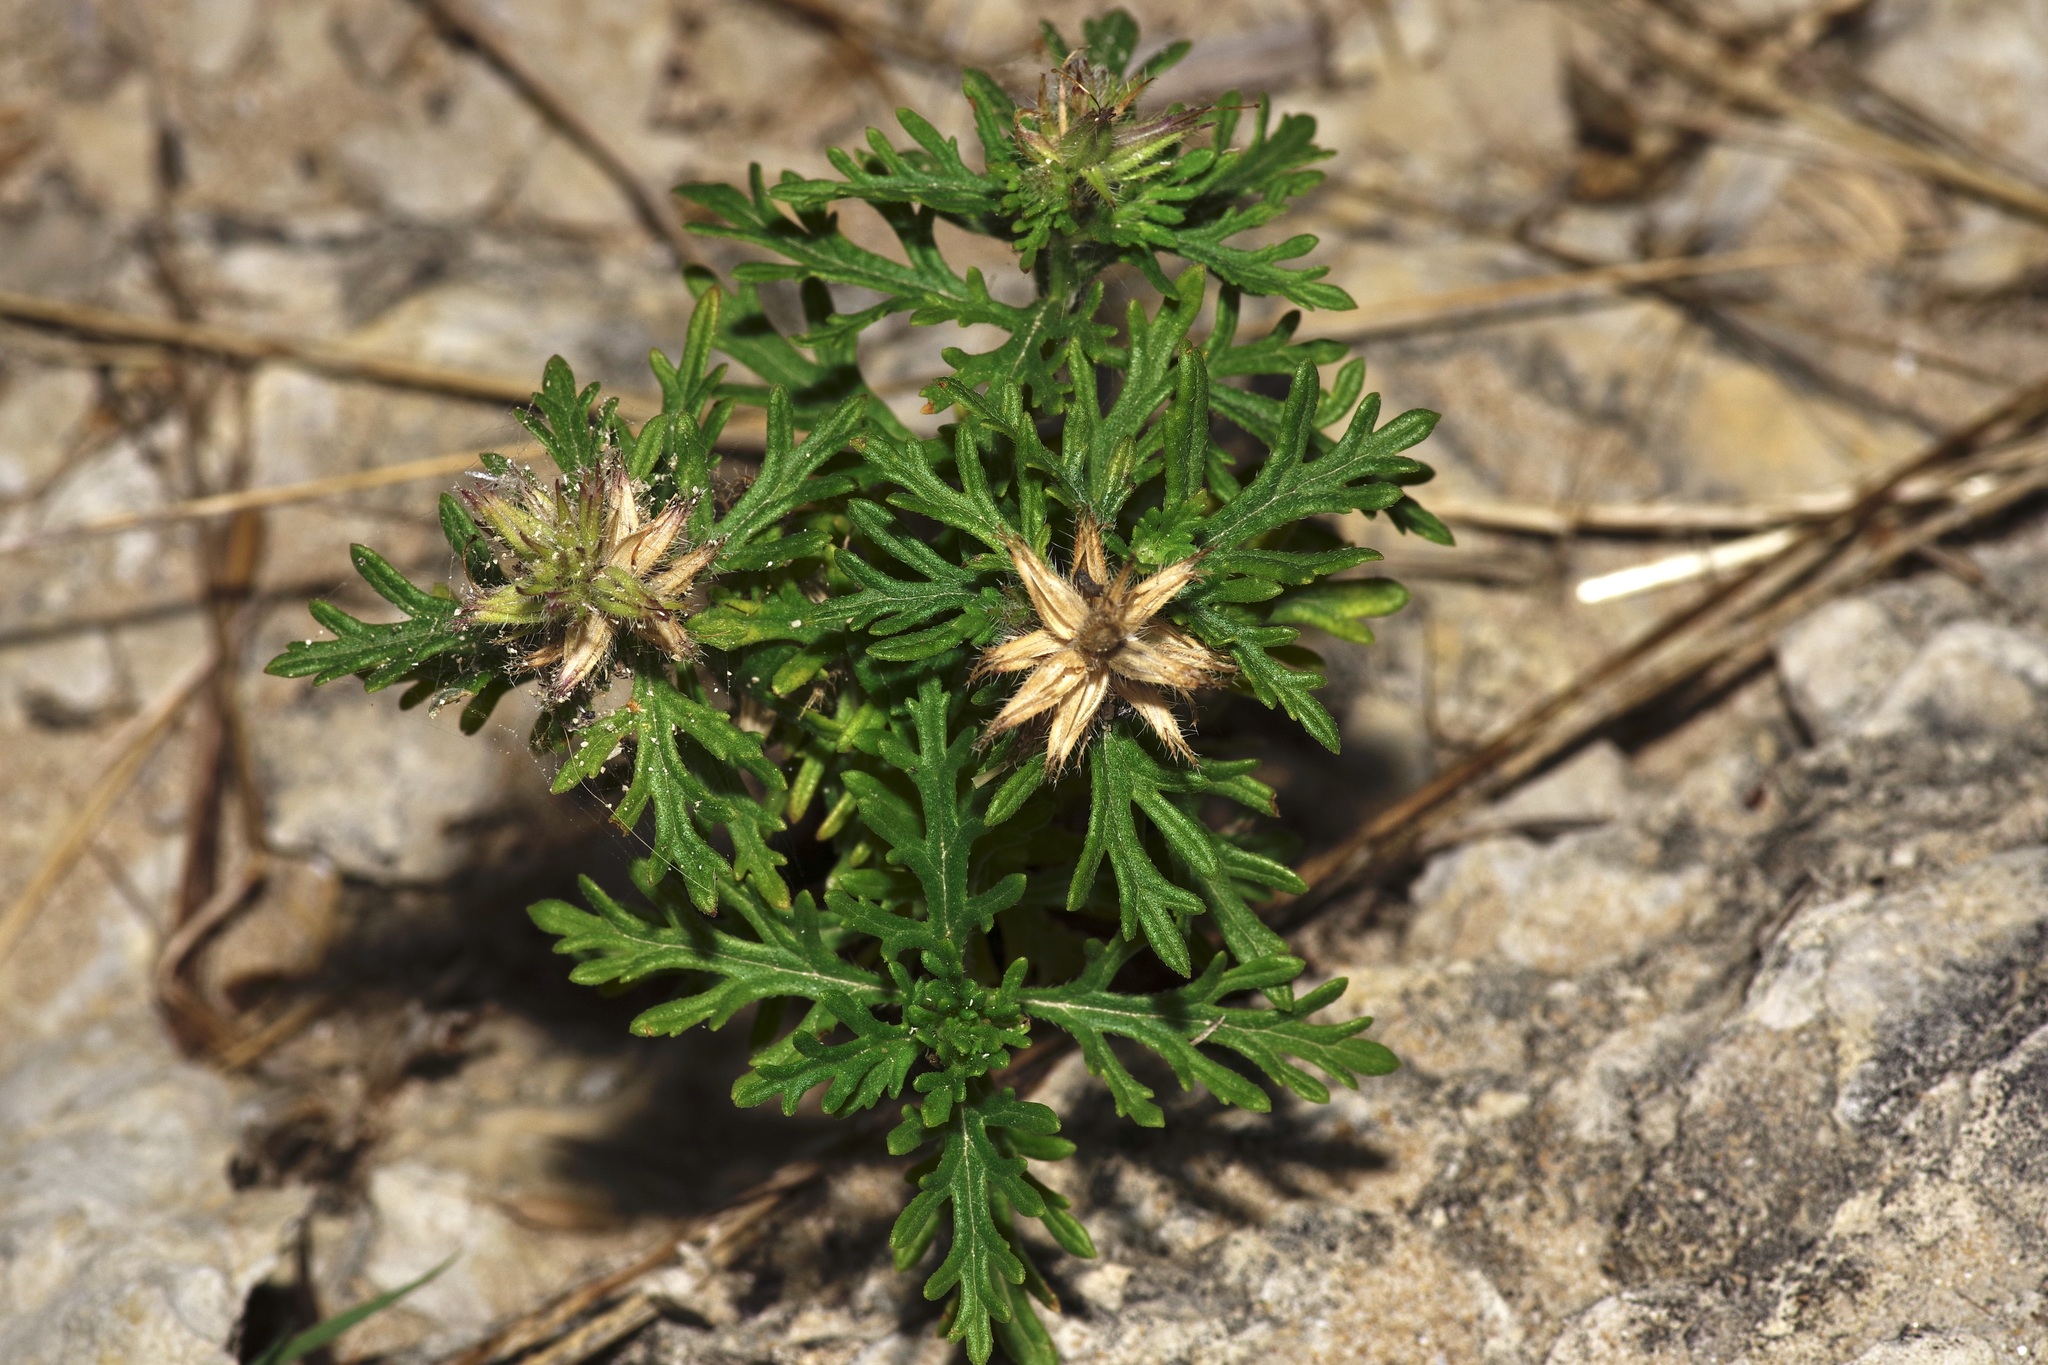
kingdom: Plantae
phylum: Tracheophyta
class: Magnoliopsida
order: Lamiales
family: Verbenaceae
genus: Verbena
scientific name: Verbena bipinnatifida
